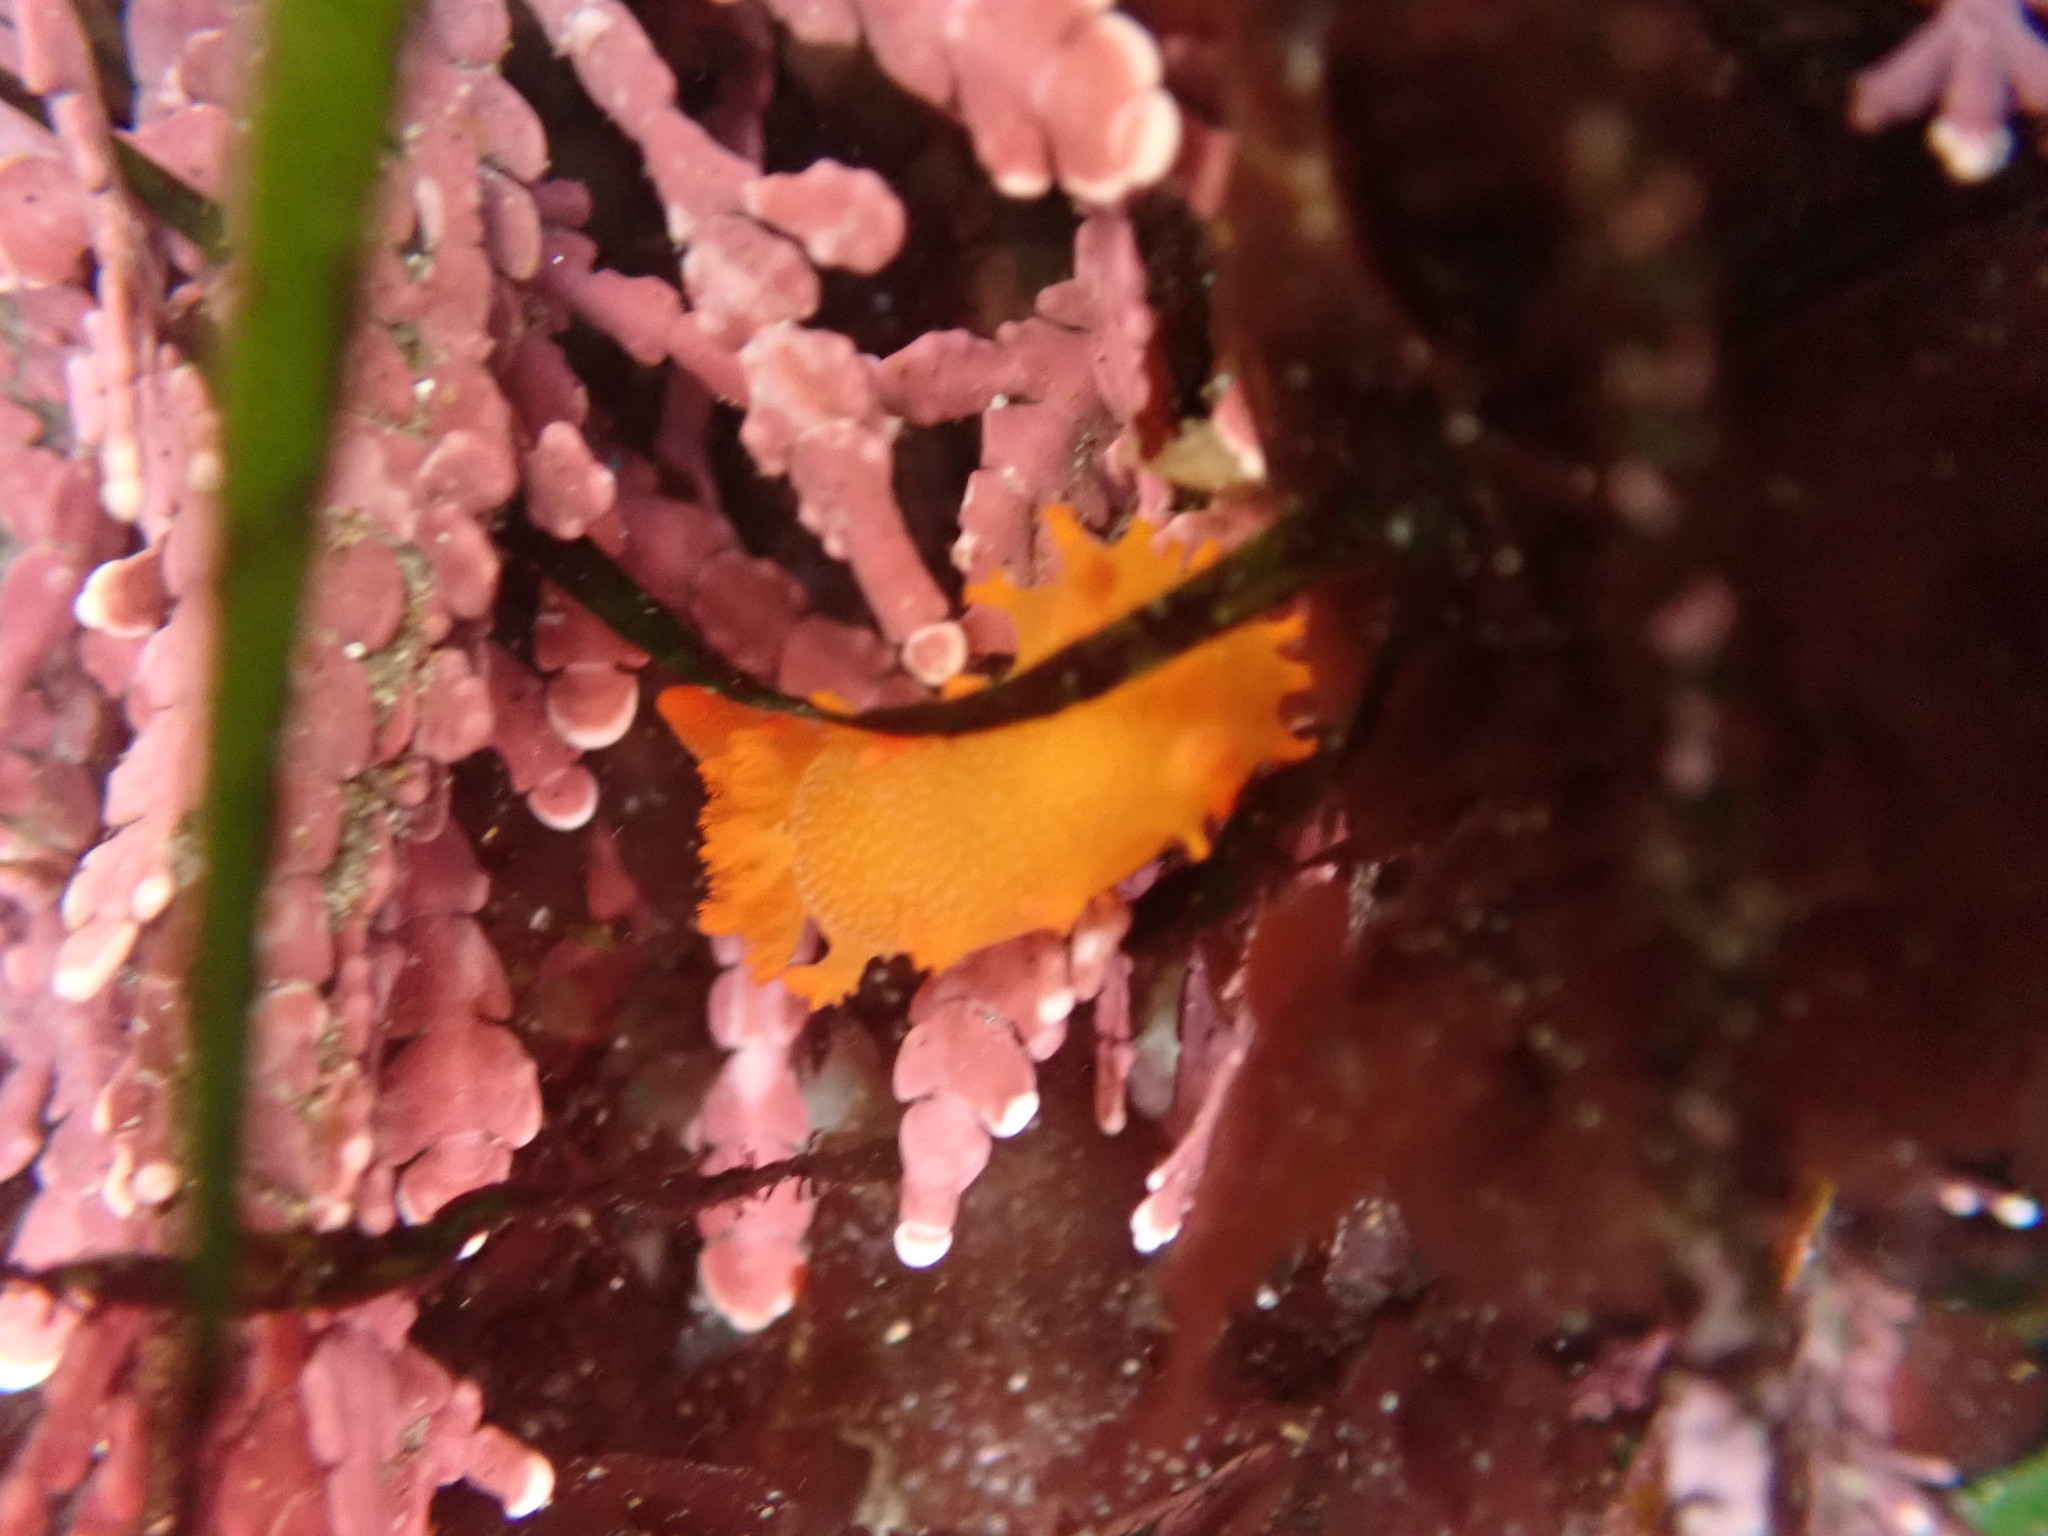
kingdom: Animalia
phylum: Mollusca
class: Gastropoda
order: Nudibranchia
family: Polyceridae
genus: Triopha
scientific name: Triopha maculata
